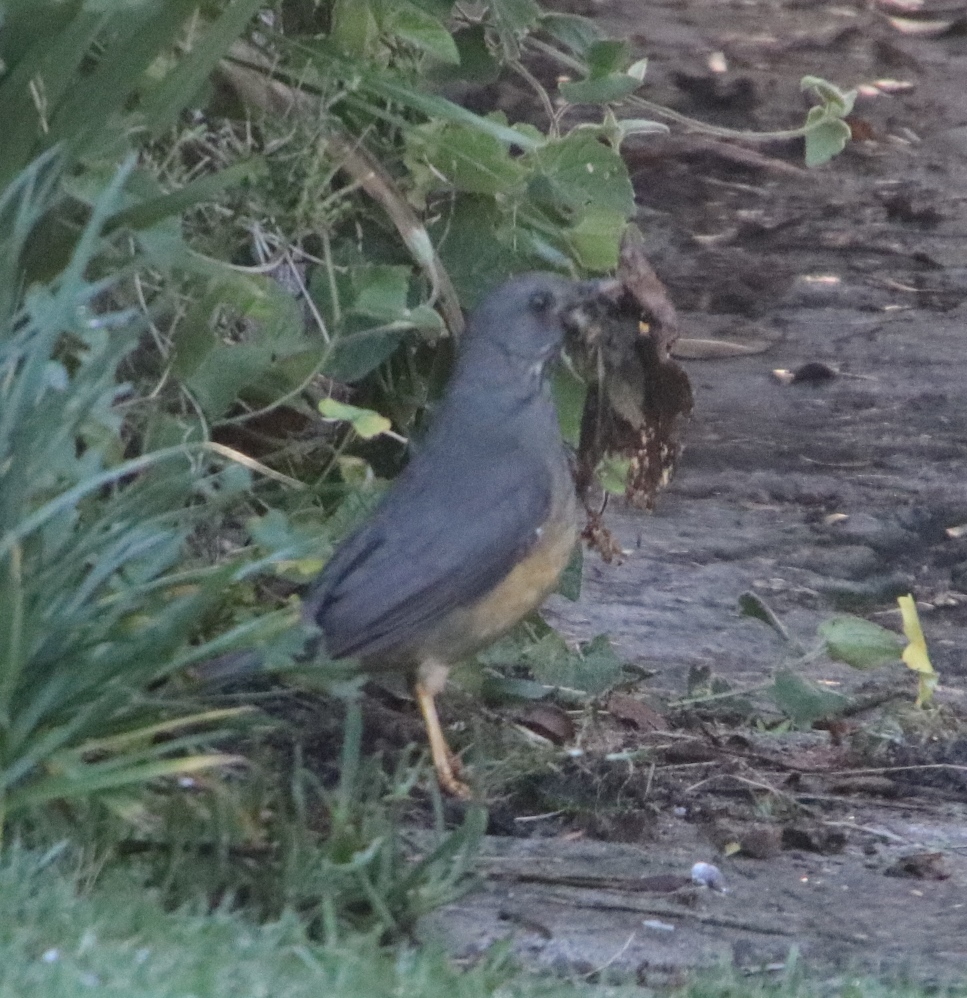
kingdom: Animalia
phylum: Chordata
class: Aves
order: Passeriformes
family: Turdidae
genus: Turdus
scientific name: Turdus olivaceus
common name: Olive thrush
